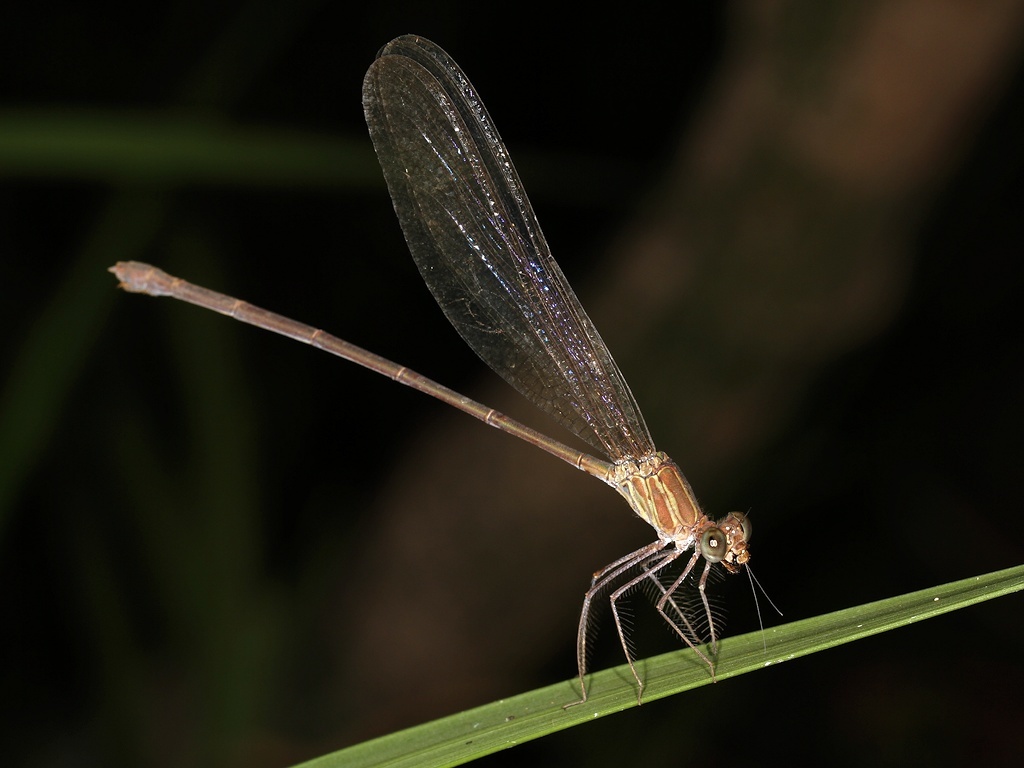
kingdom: Animalia
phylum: Arthropoda
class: Insecta
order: Odonata
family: Calopterygidae
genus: Phaon
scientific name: Phaon iridipennis
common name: Glistening demoiselle
